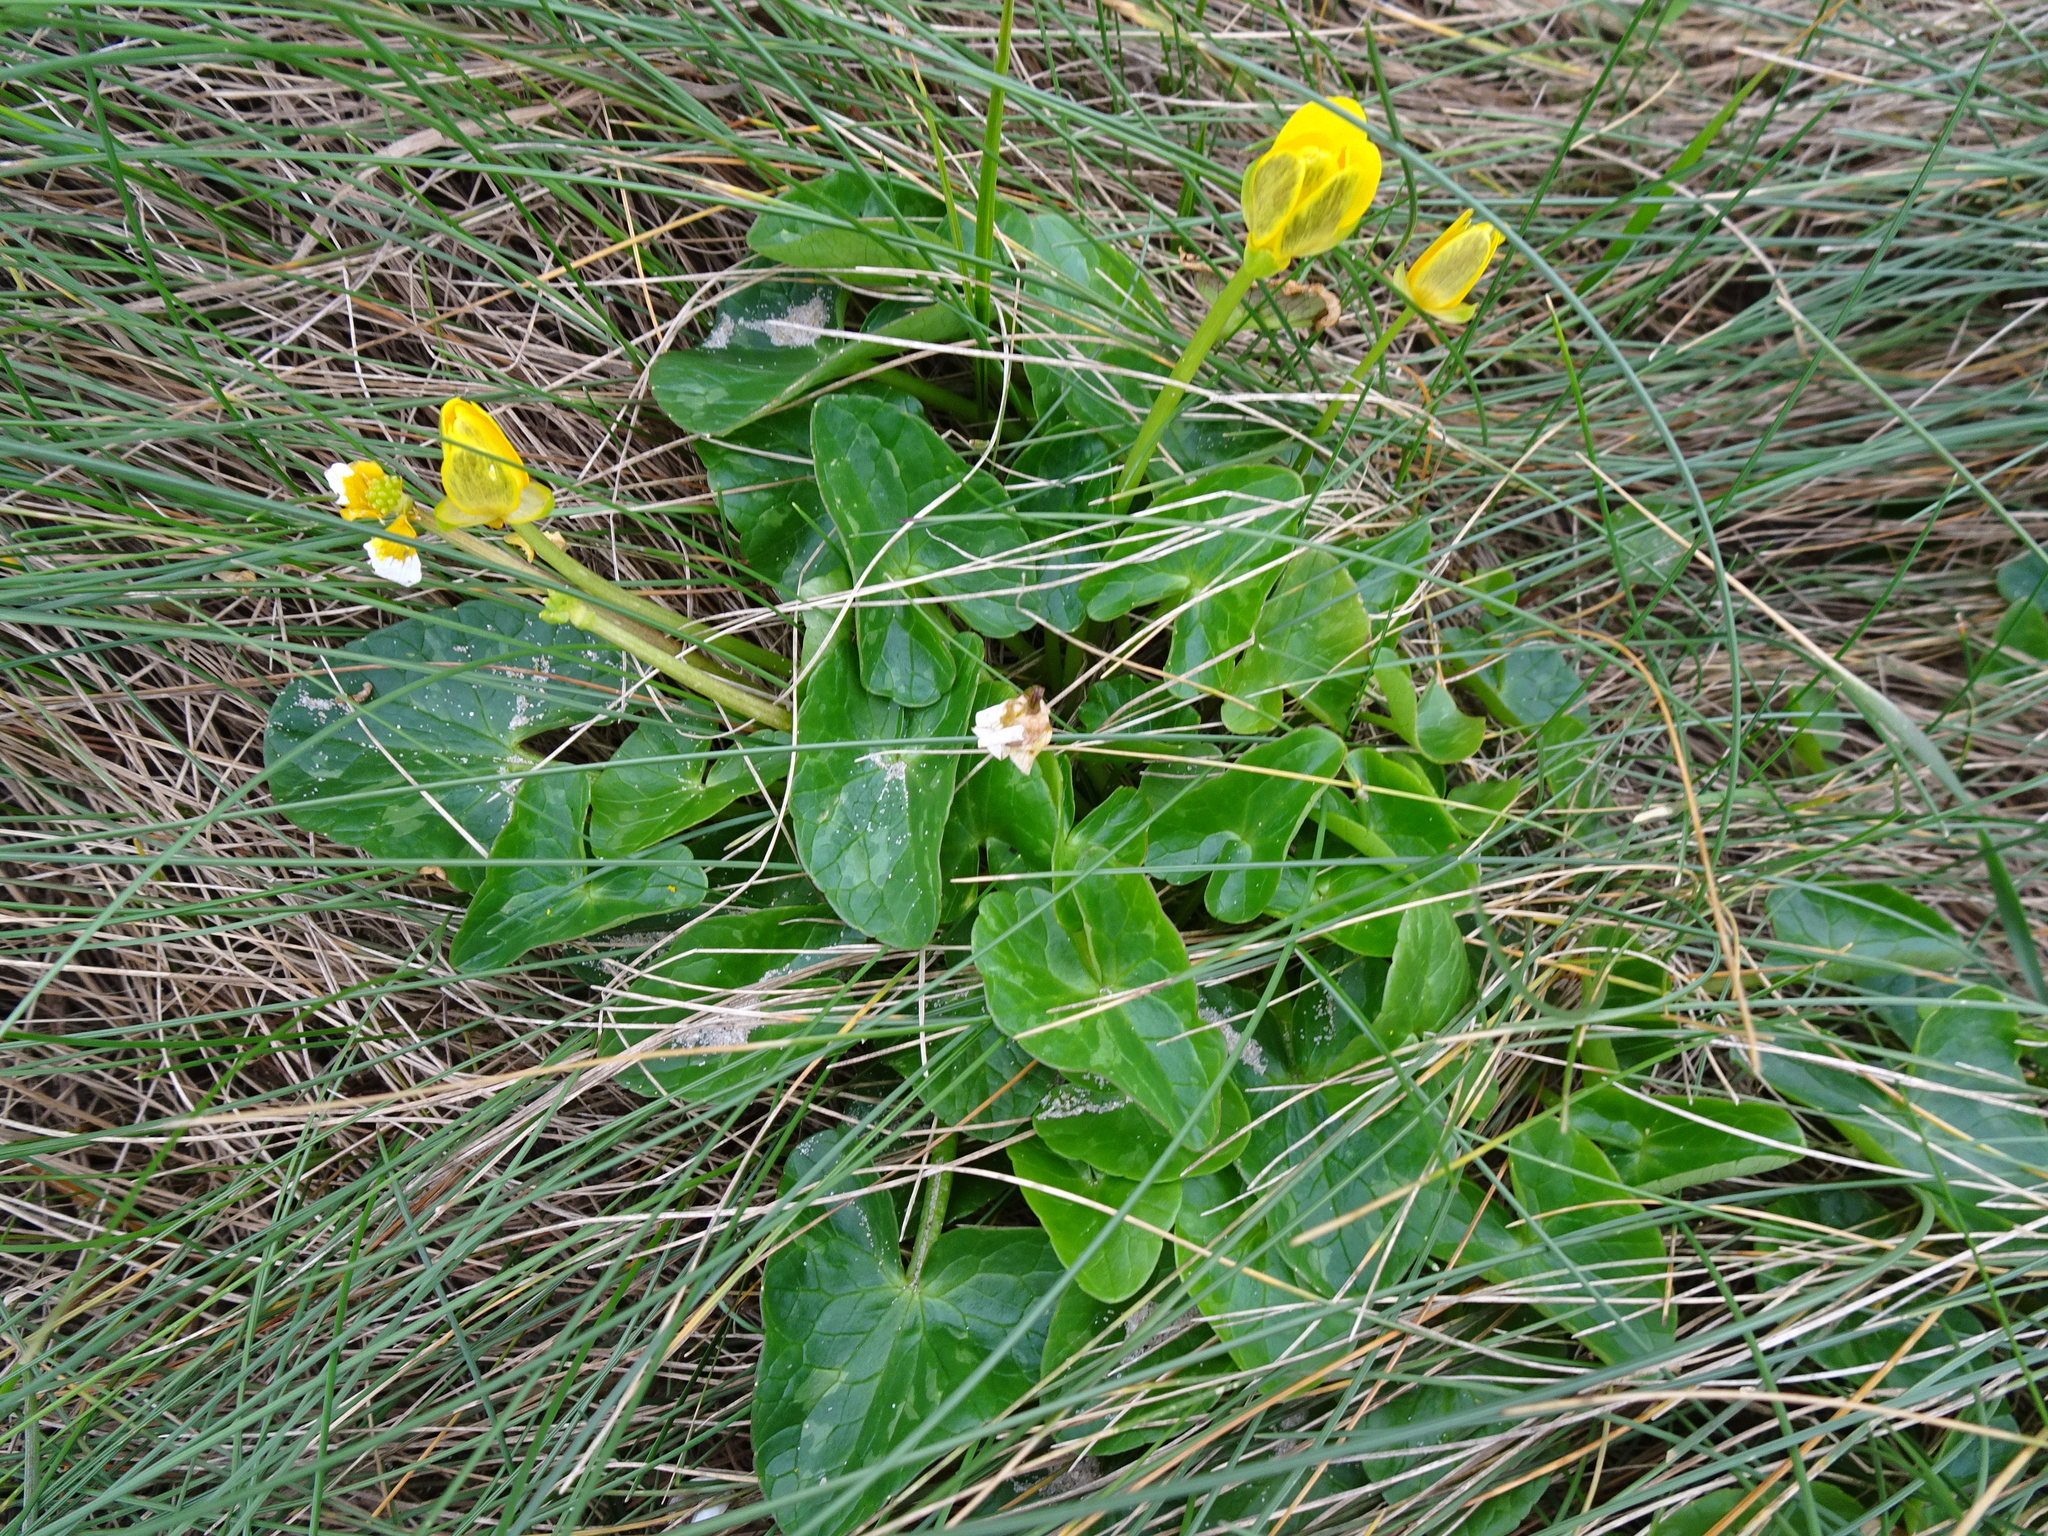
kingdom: Plantae
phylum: Tracheophyta
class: Magnoliopsida
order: Ranunculales
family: Ranunculaceae
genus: Ficaria
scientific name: Ficaria verna
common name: Lesser celandine
